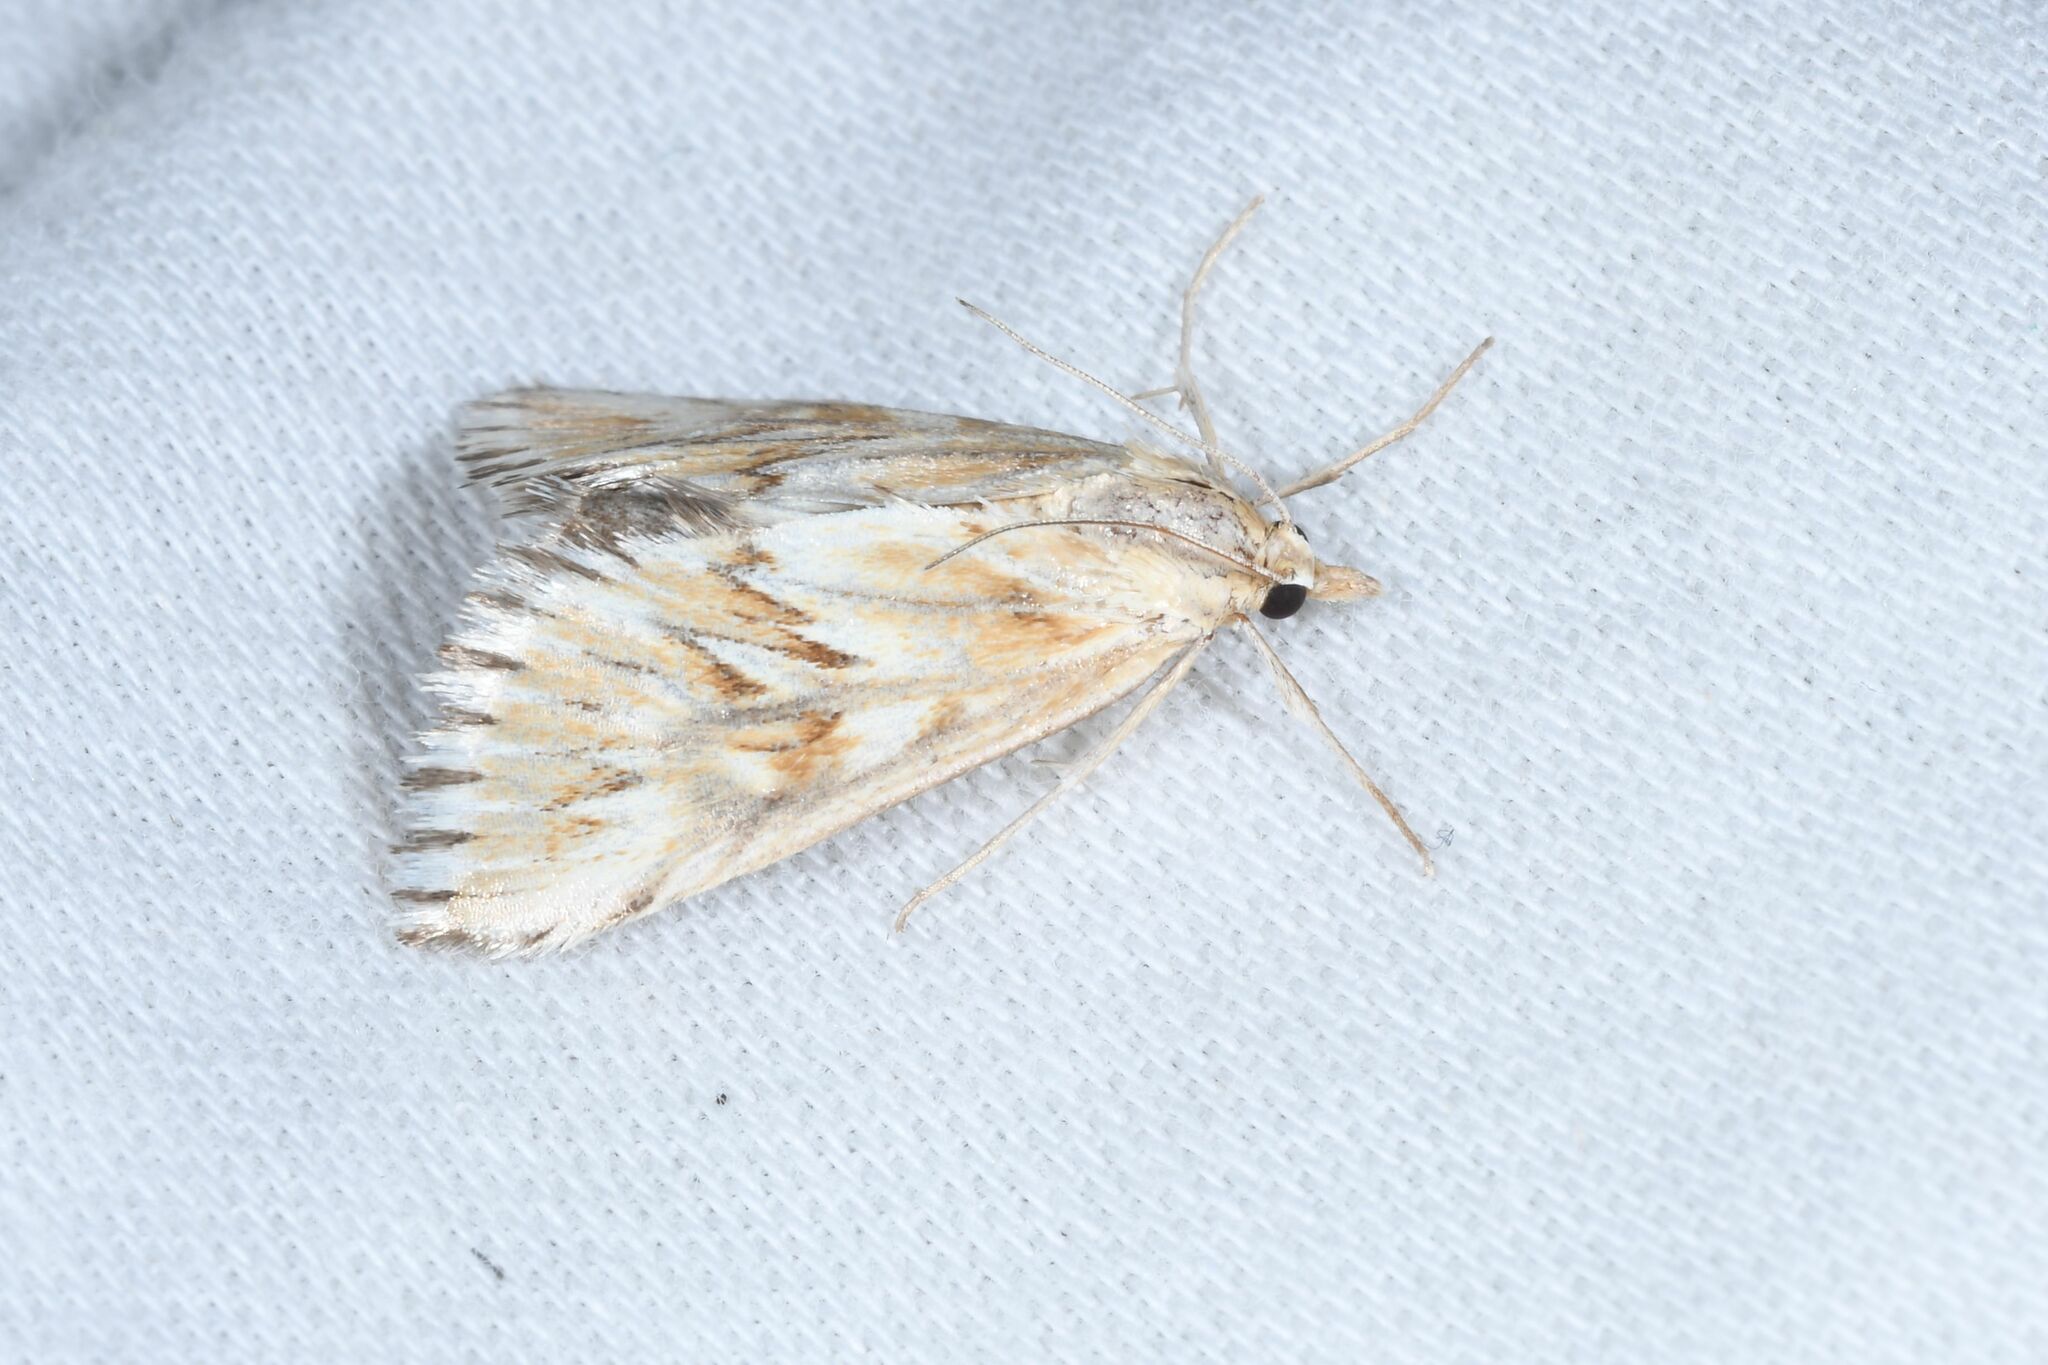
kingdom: Animalia
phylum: Arthropoda
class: Insecta
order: Lepidoptera
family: Crambidae
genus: Cynaeda
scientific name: Cynaeda dentalis
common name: Starry pearl
